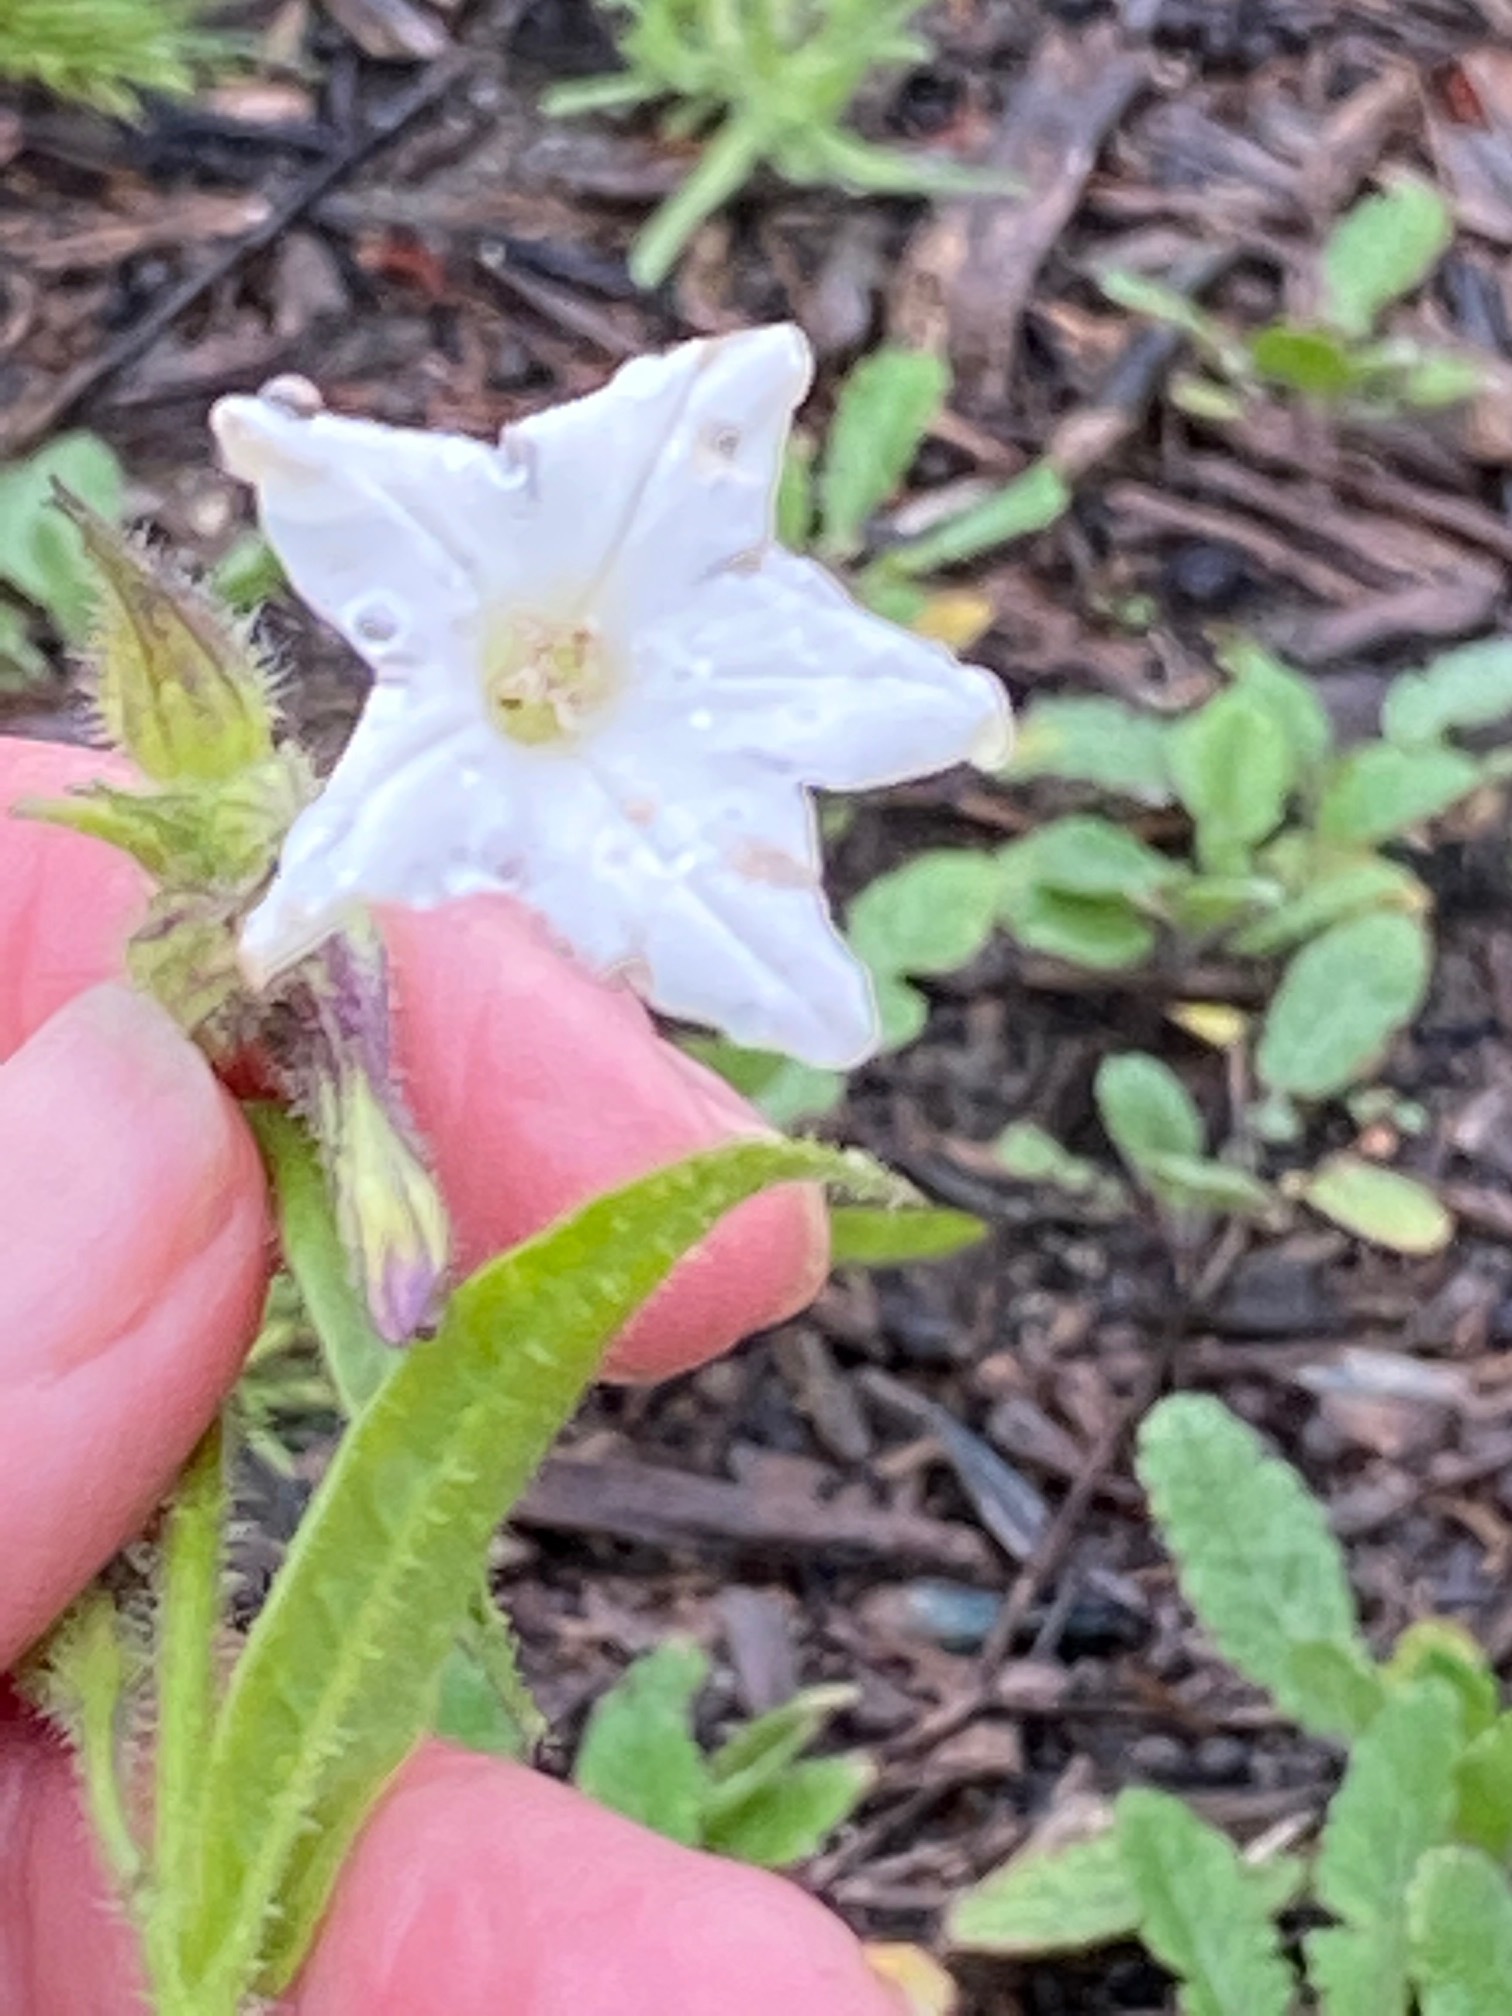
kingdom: Plantae
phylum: Tracheophyta
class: Magnoliopsida
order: Solanales
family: Solanaceae
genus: Nicotiana
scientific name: Nicotiana quadrivalvis
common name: Indian tobacco
